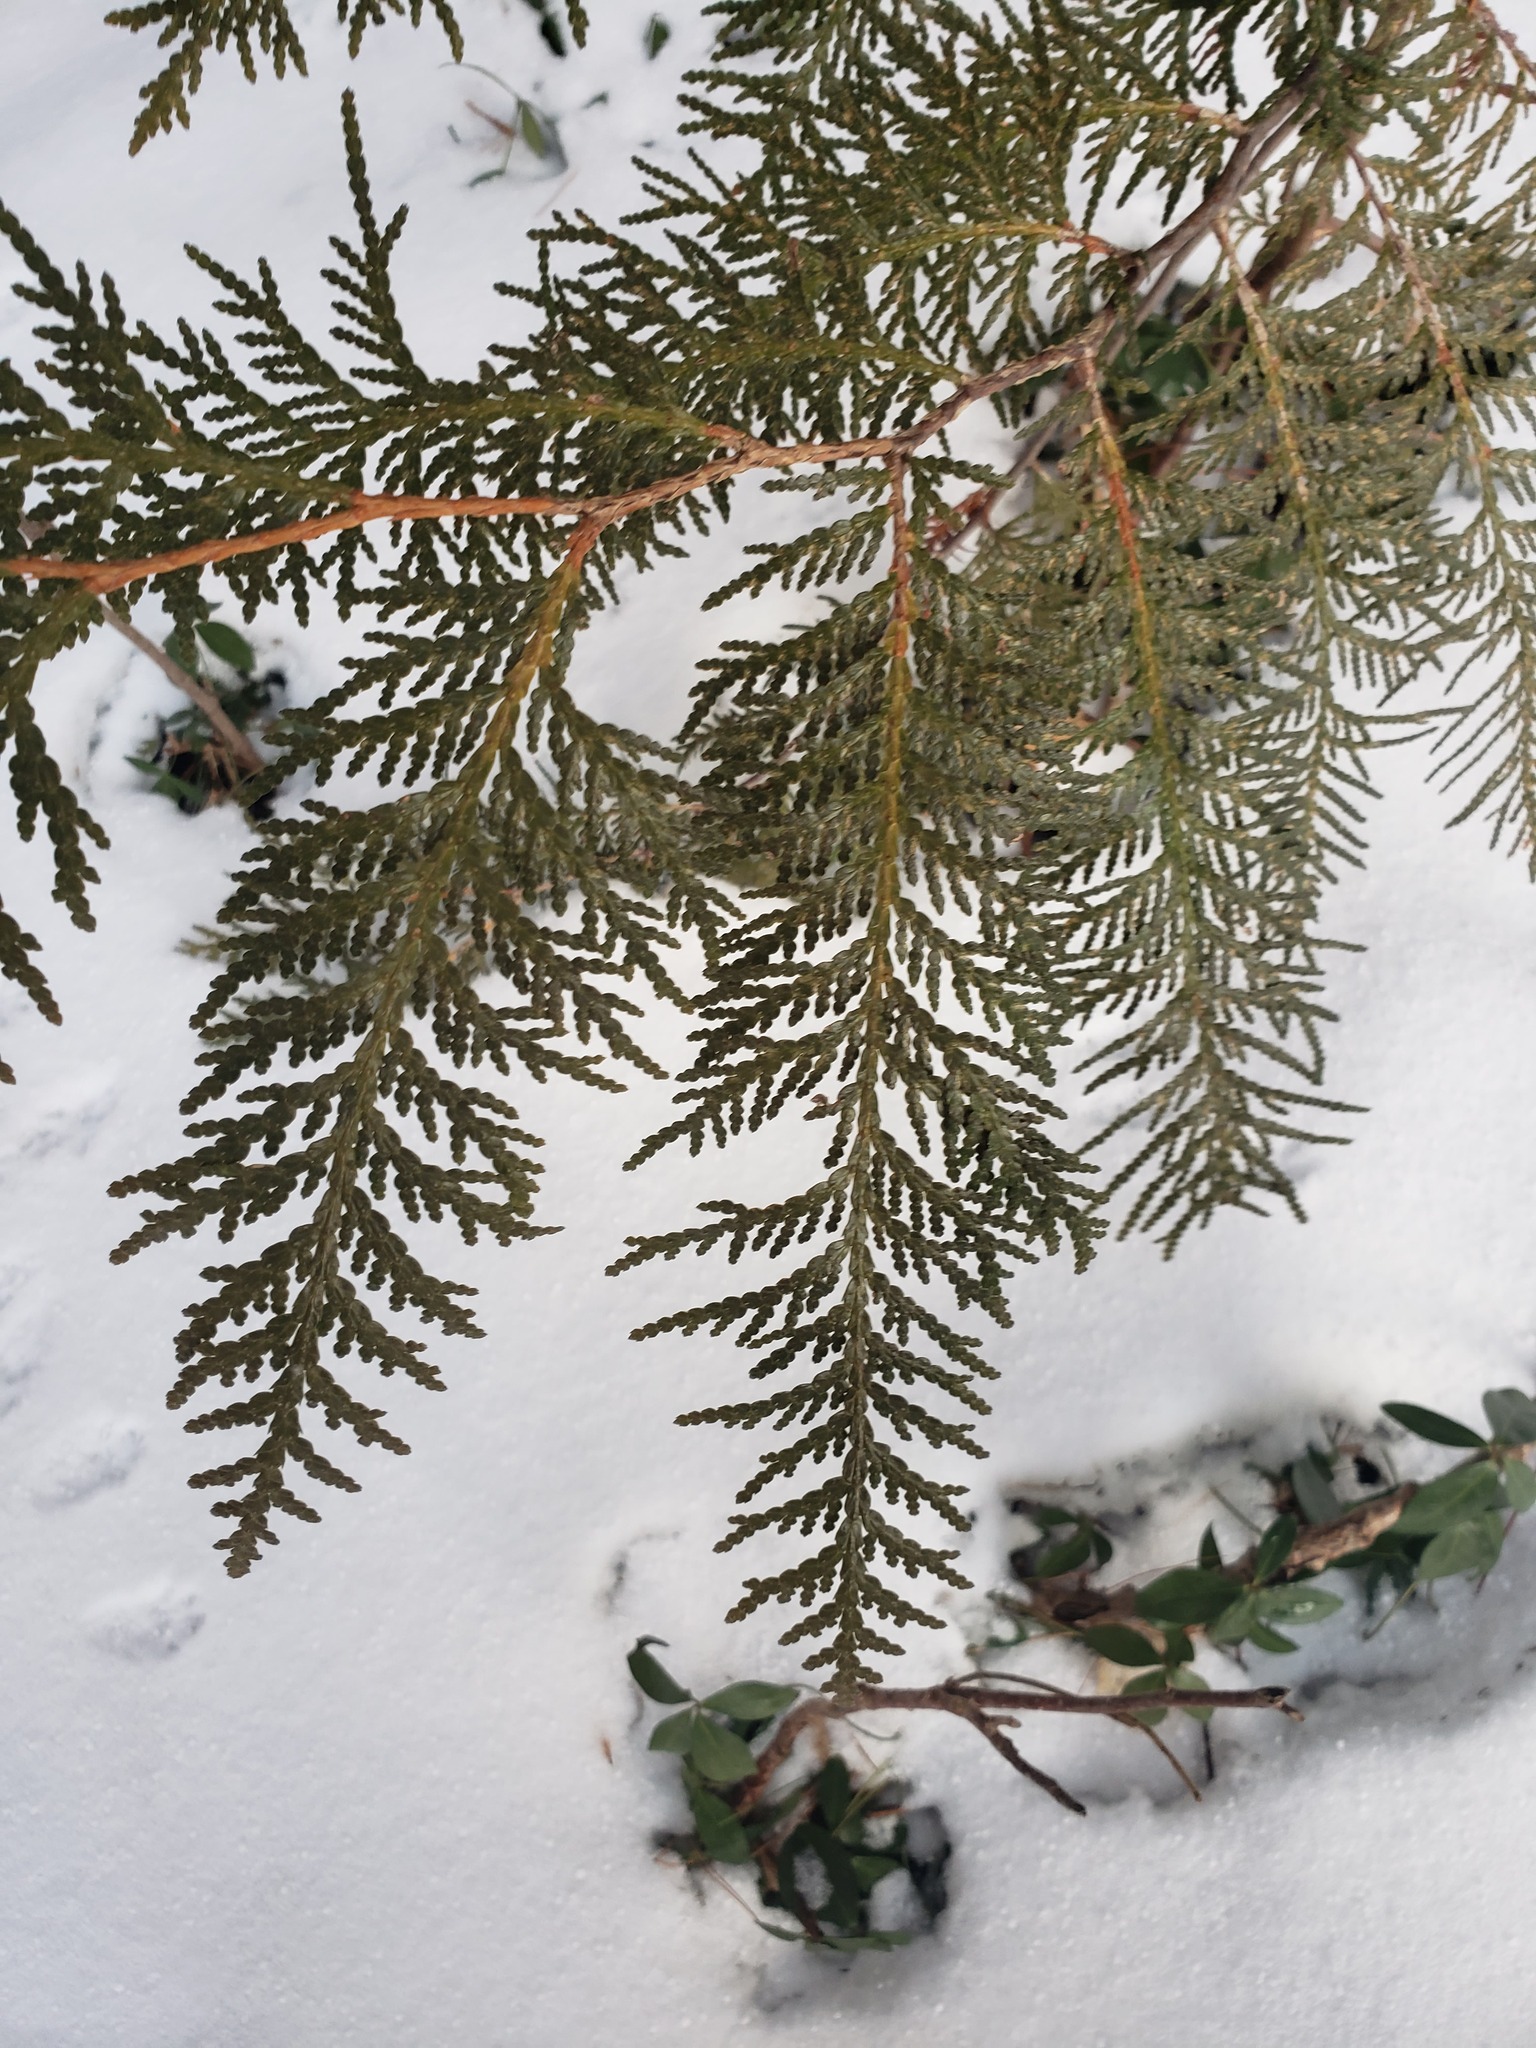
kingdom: Plantae
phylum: Tracheophyta
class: Pinopsida
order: Pinales
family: Cupressaceae
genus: Thuja
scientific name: Thuja occidentalis
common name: Northern white-cedar
